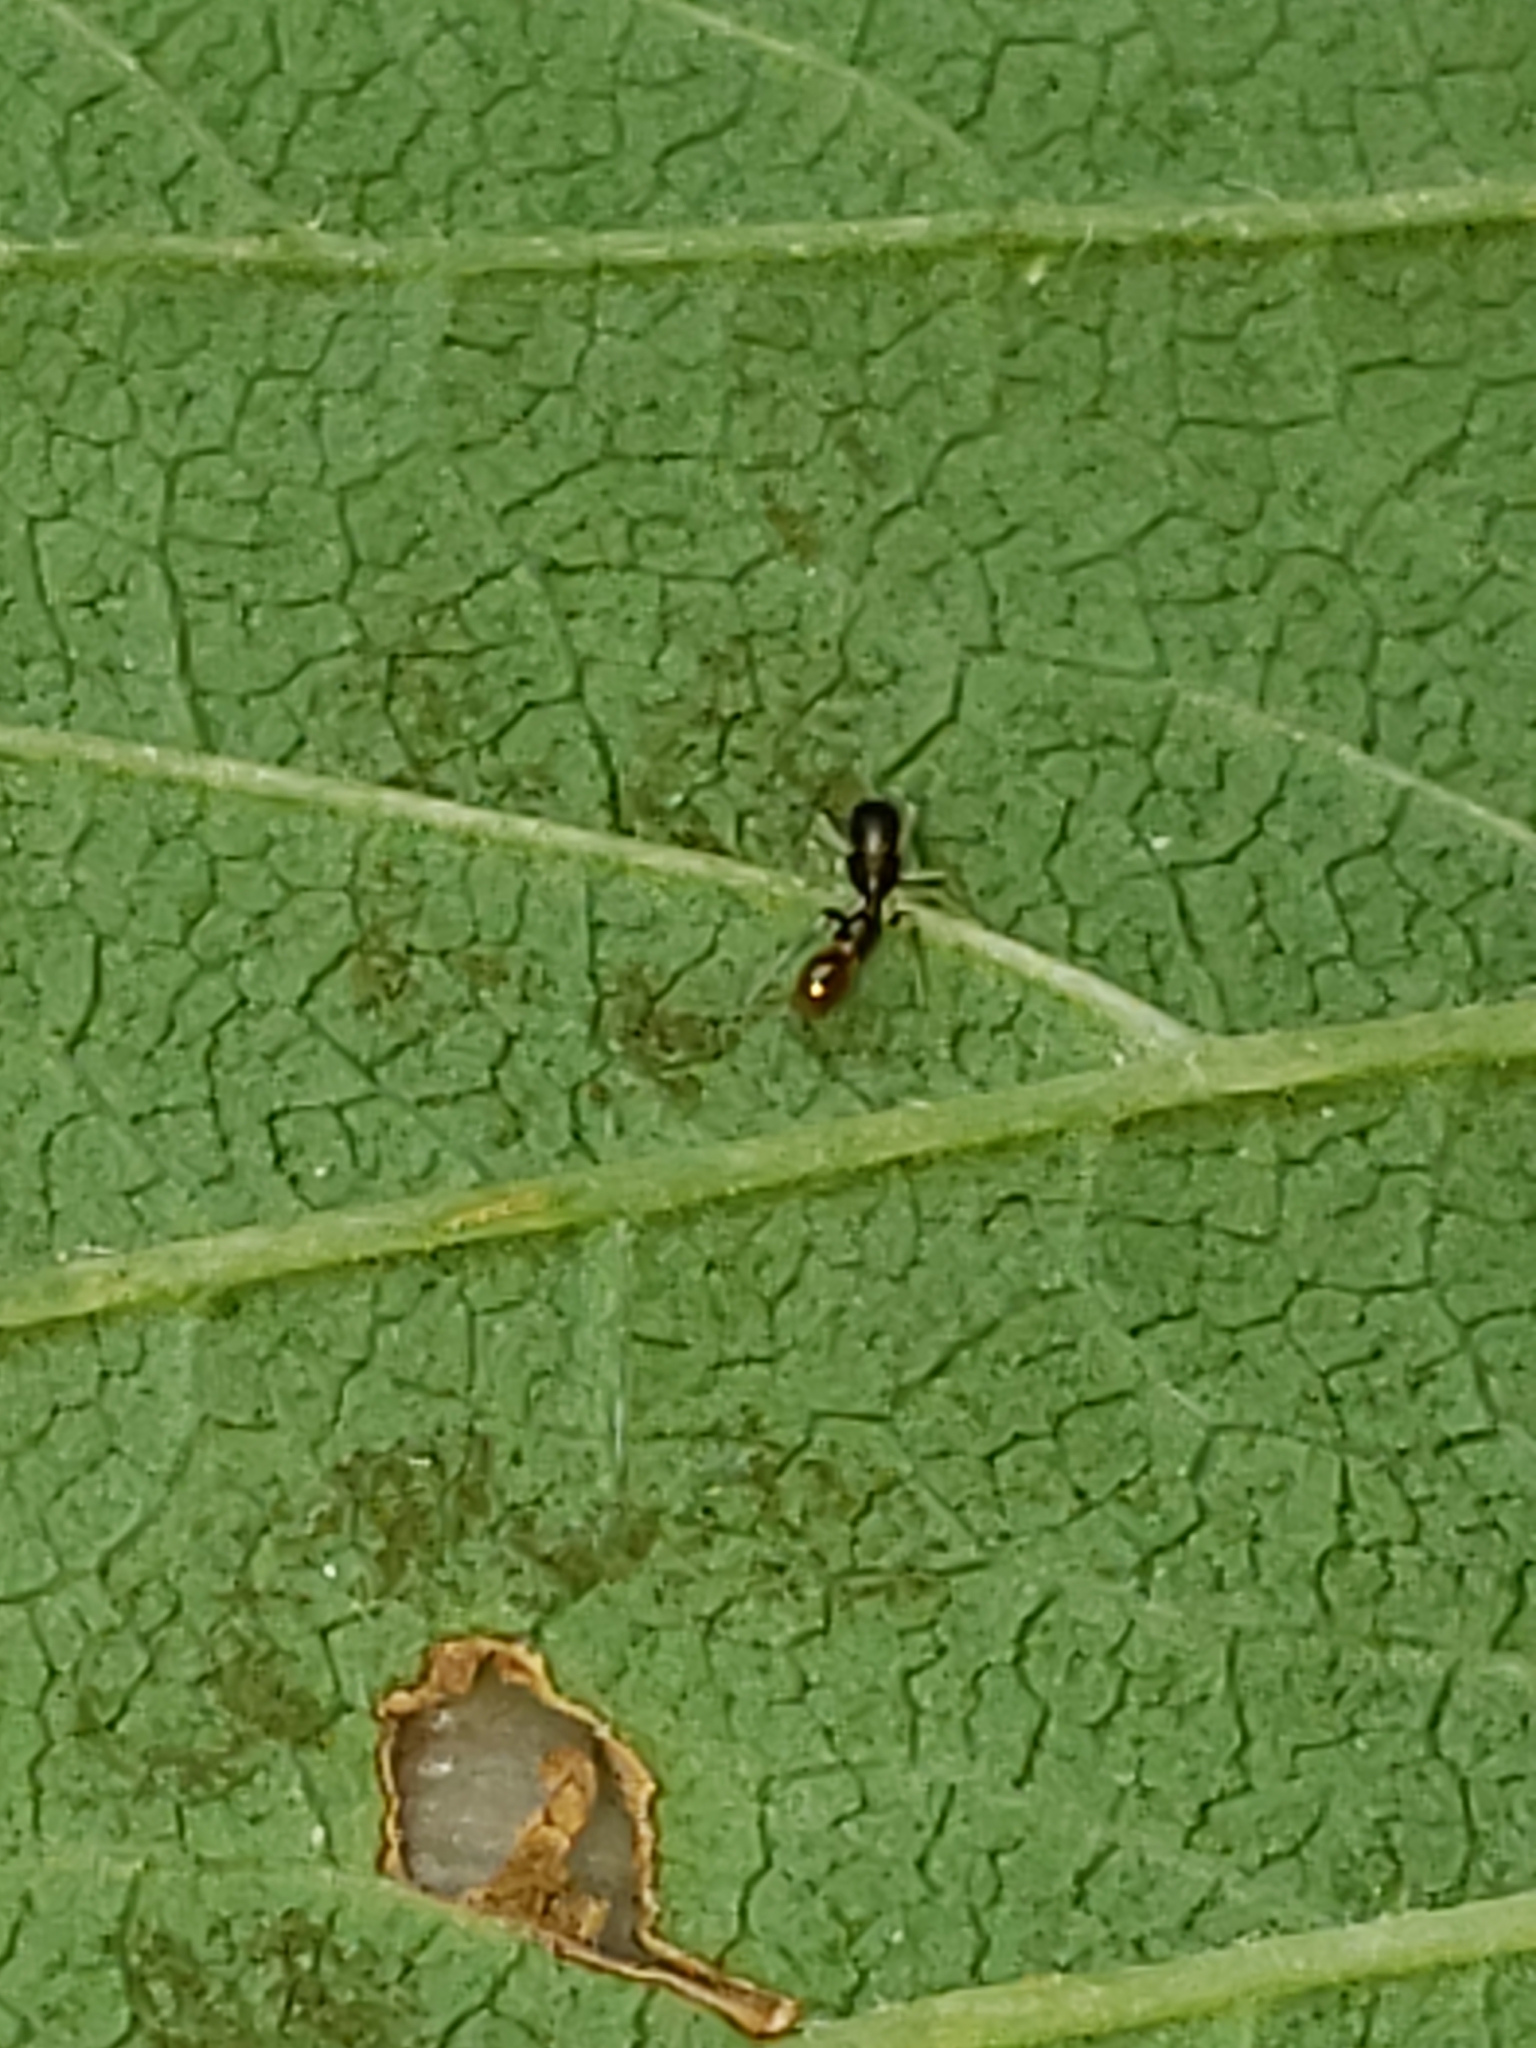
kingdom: Animalia
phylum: Arthropoda
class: Arachnida
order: Araneae
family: Salticidae
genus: Synemosyna
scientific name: Synemosyna formica
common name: Slender ant-mimic jumping spider
